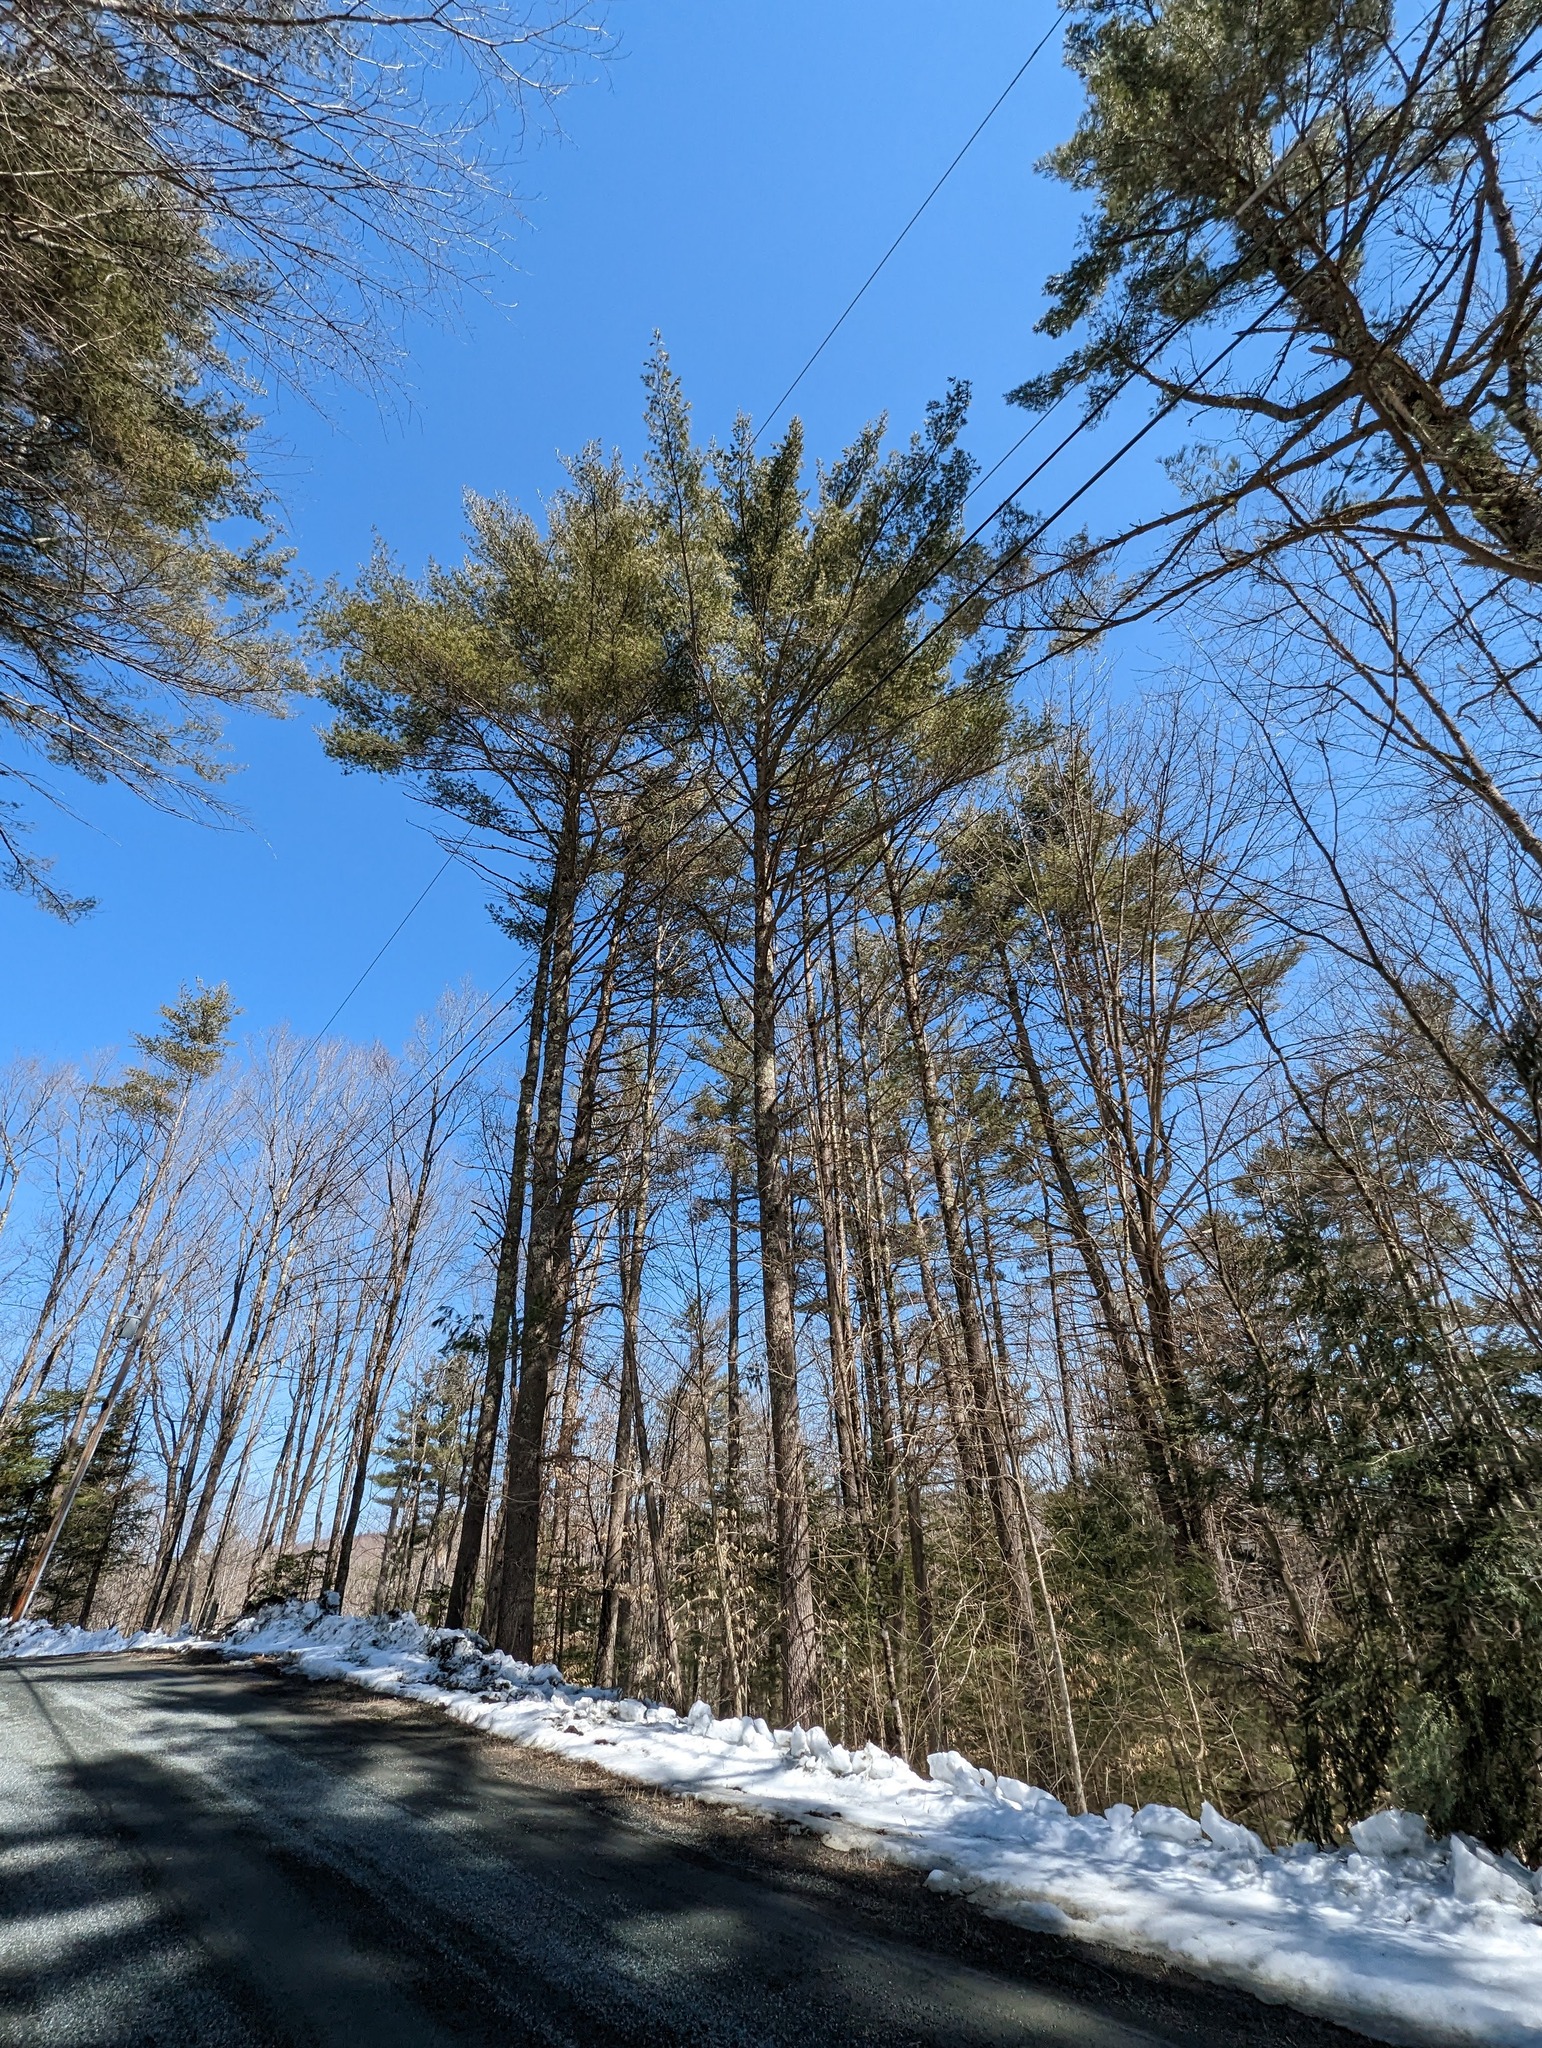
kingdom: Plantae
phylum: Tracheophyta
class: Pinopsida
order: Pinales
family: Pinaceae
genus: Pinus
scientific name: Pinus strobus
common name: Weymouth pine
